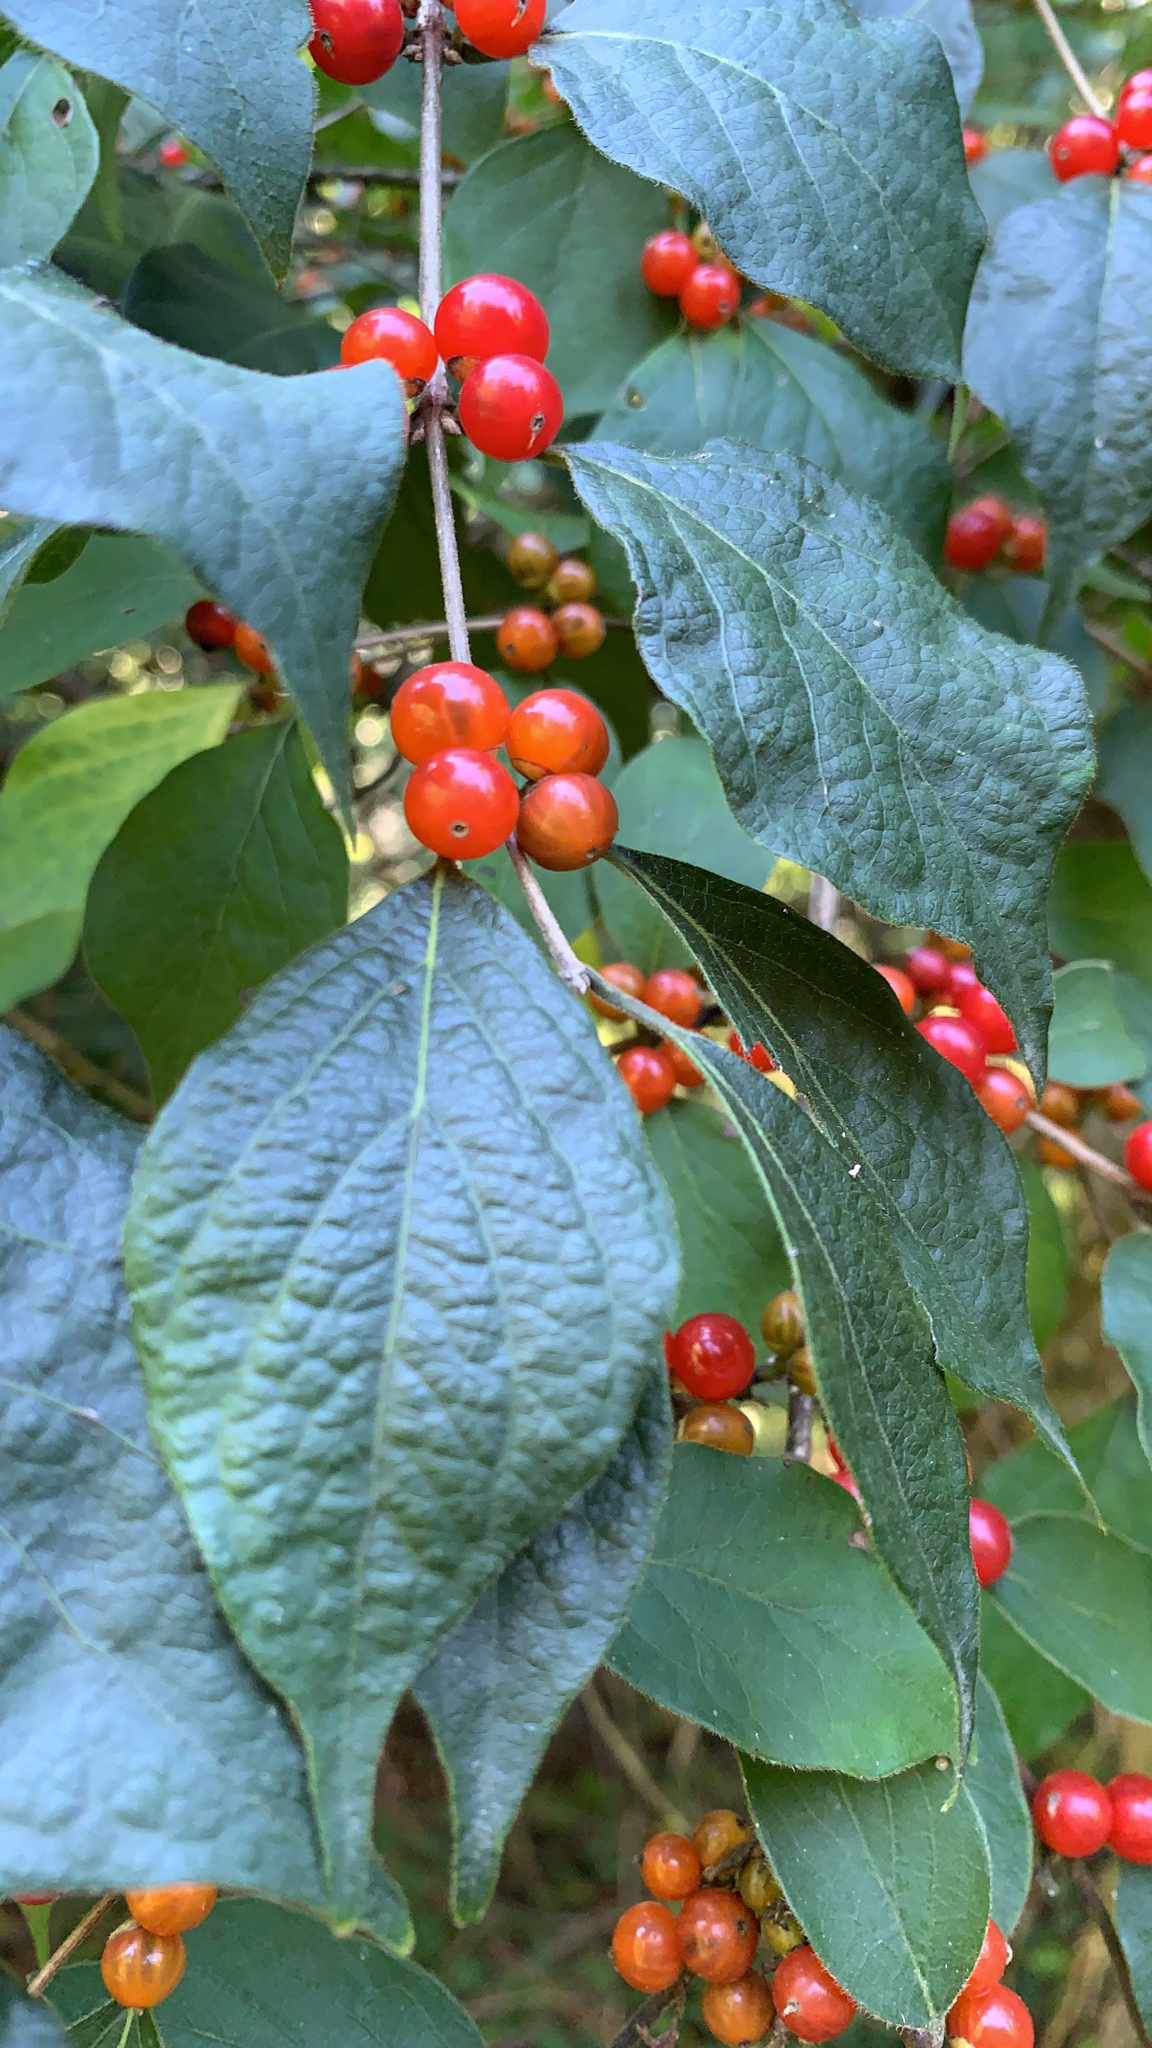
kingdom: Plantae
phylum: Tracheophyta
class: Magnoliopsida
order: Dipsacales
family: Caprifoliaceae
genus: Lonicera
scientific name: Lonicera maackii
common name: Amur honeysuckle
